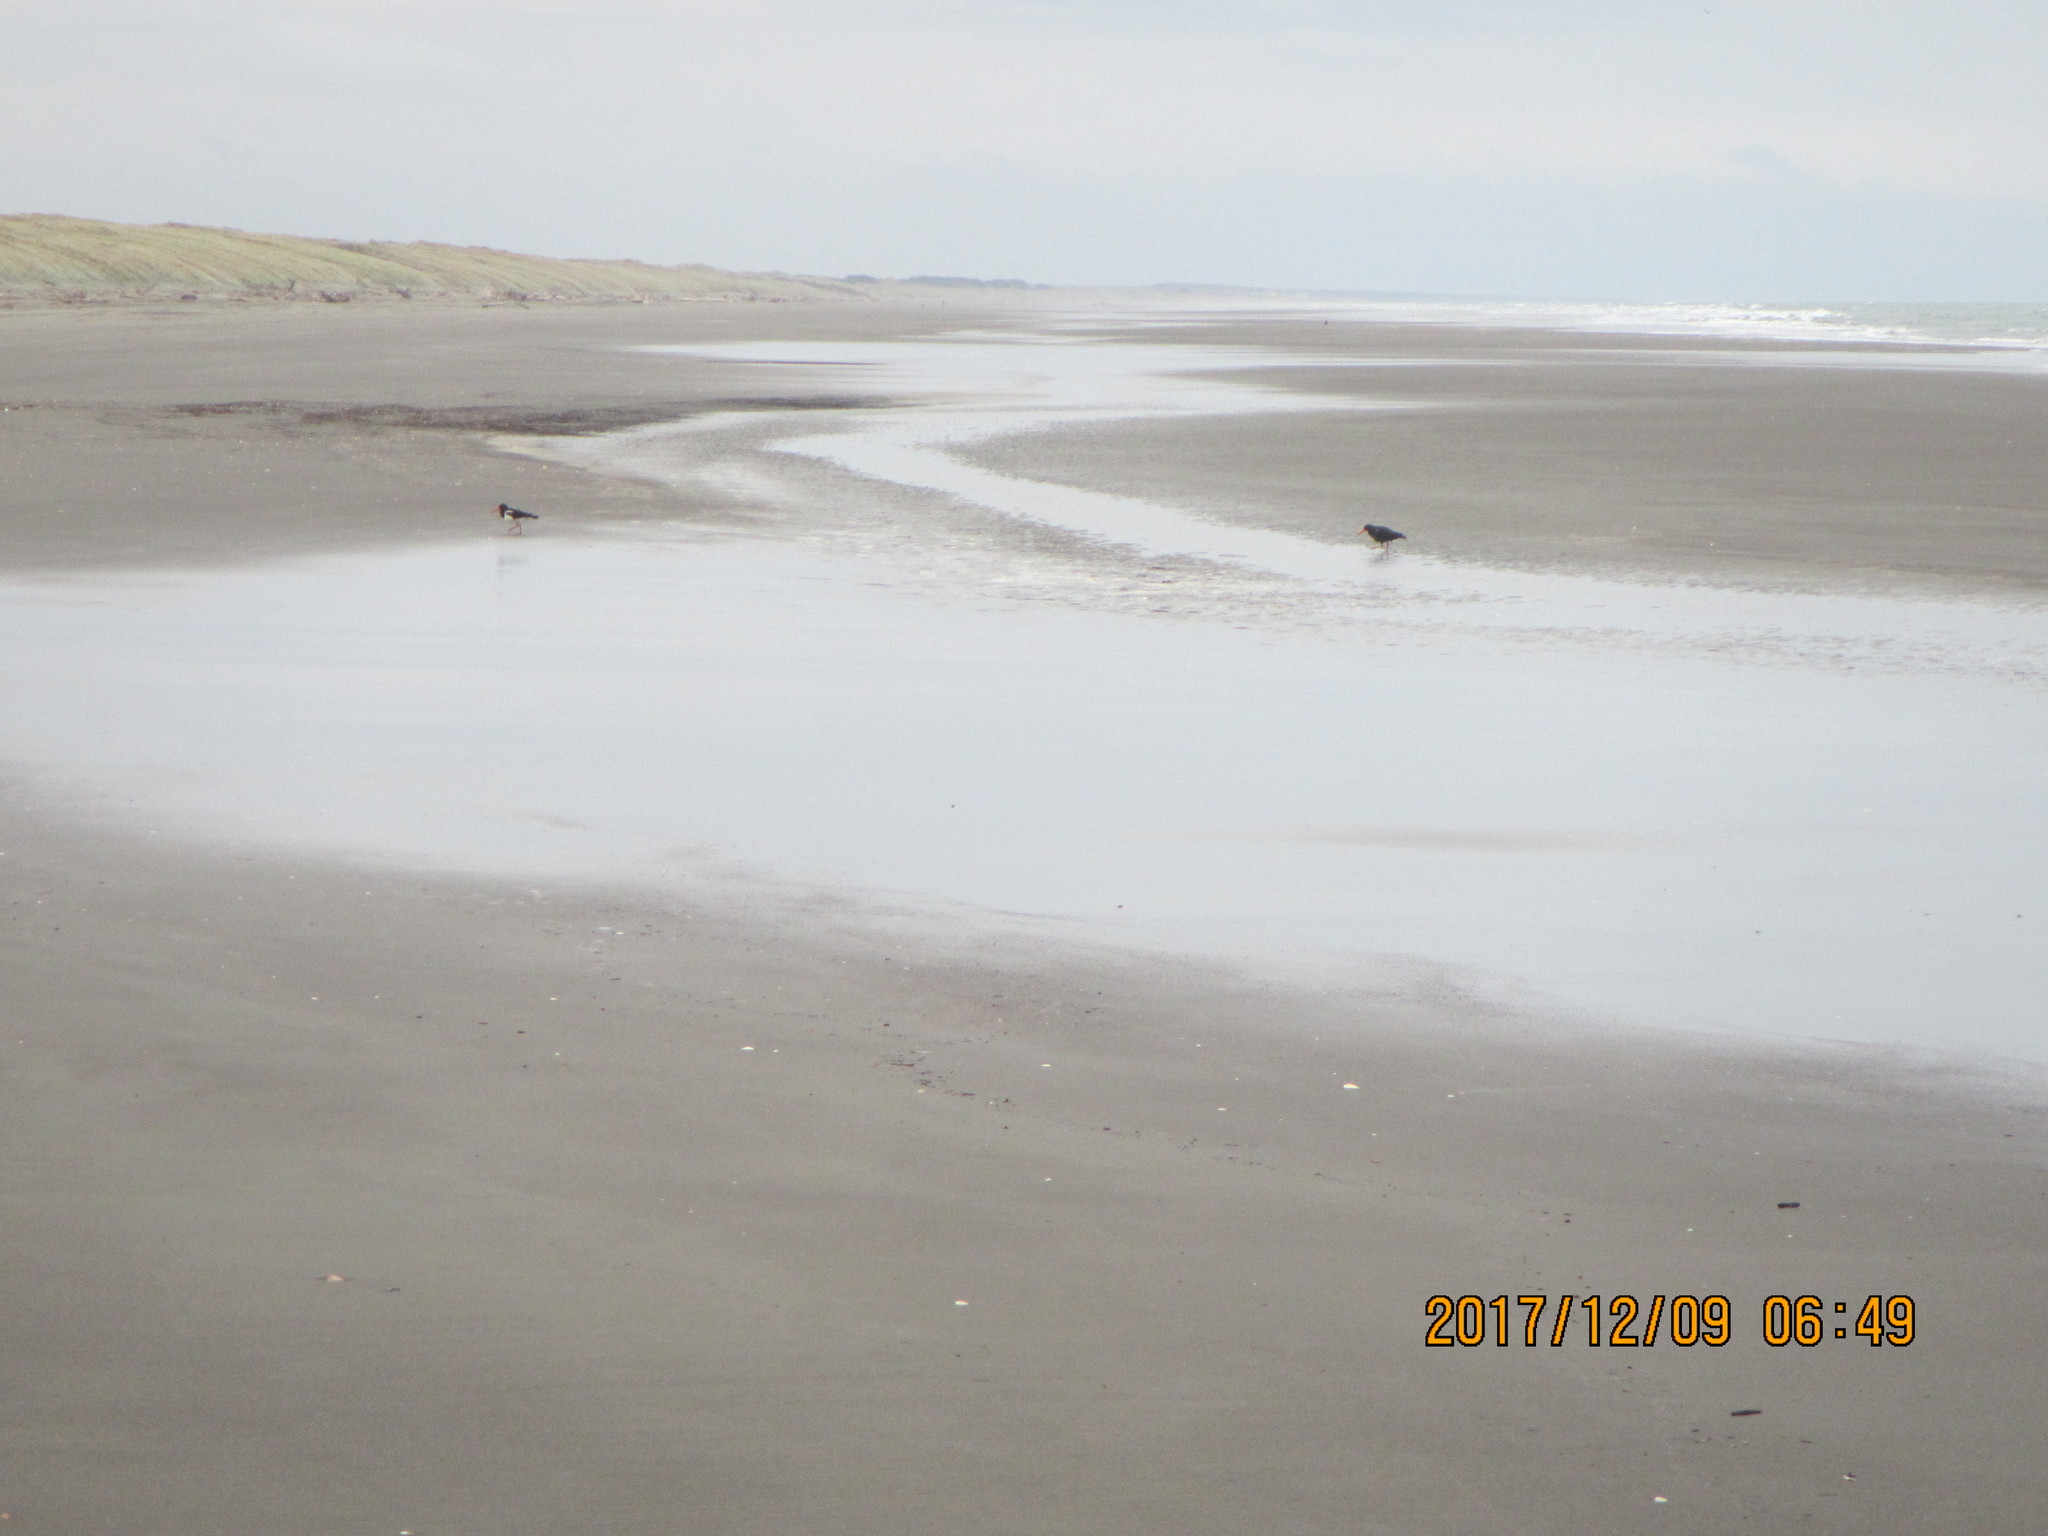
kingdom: Animalia
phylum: Chordata
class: Aves
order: Charadriiformes
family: Haematopodidae
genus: Haematopus
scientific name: Haematopus finschi
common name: South island oystercatcher
